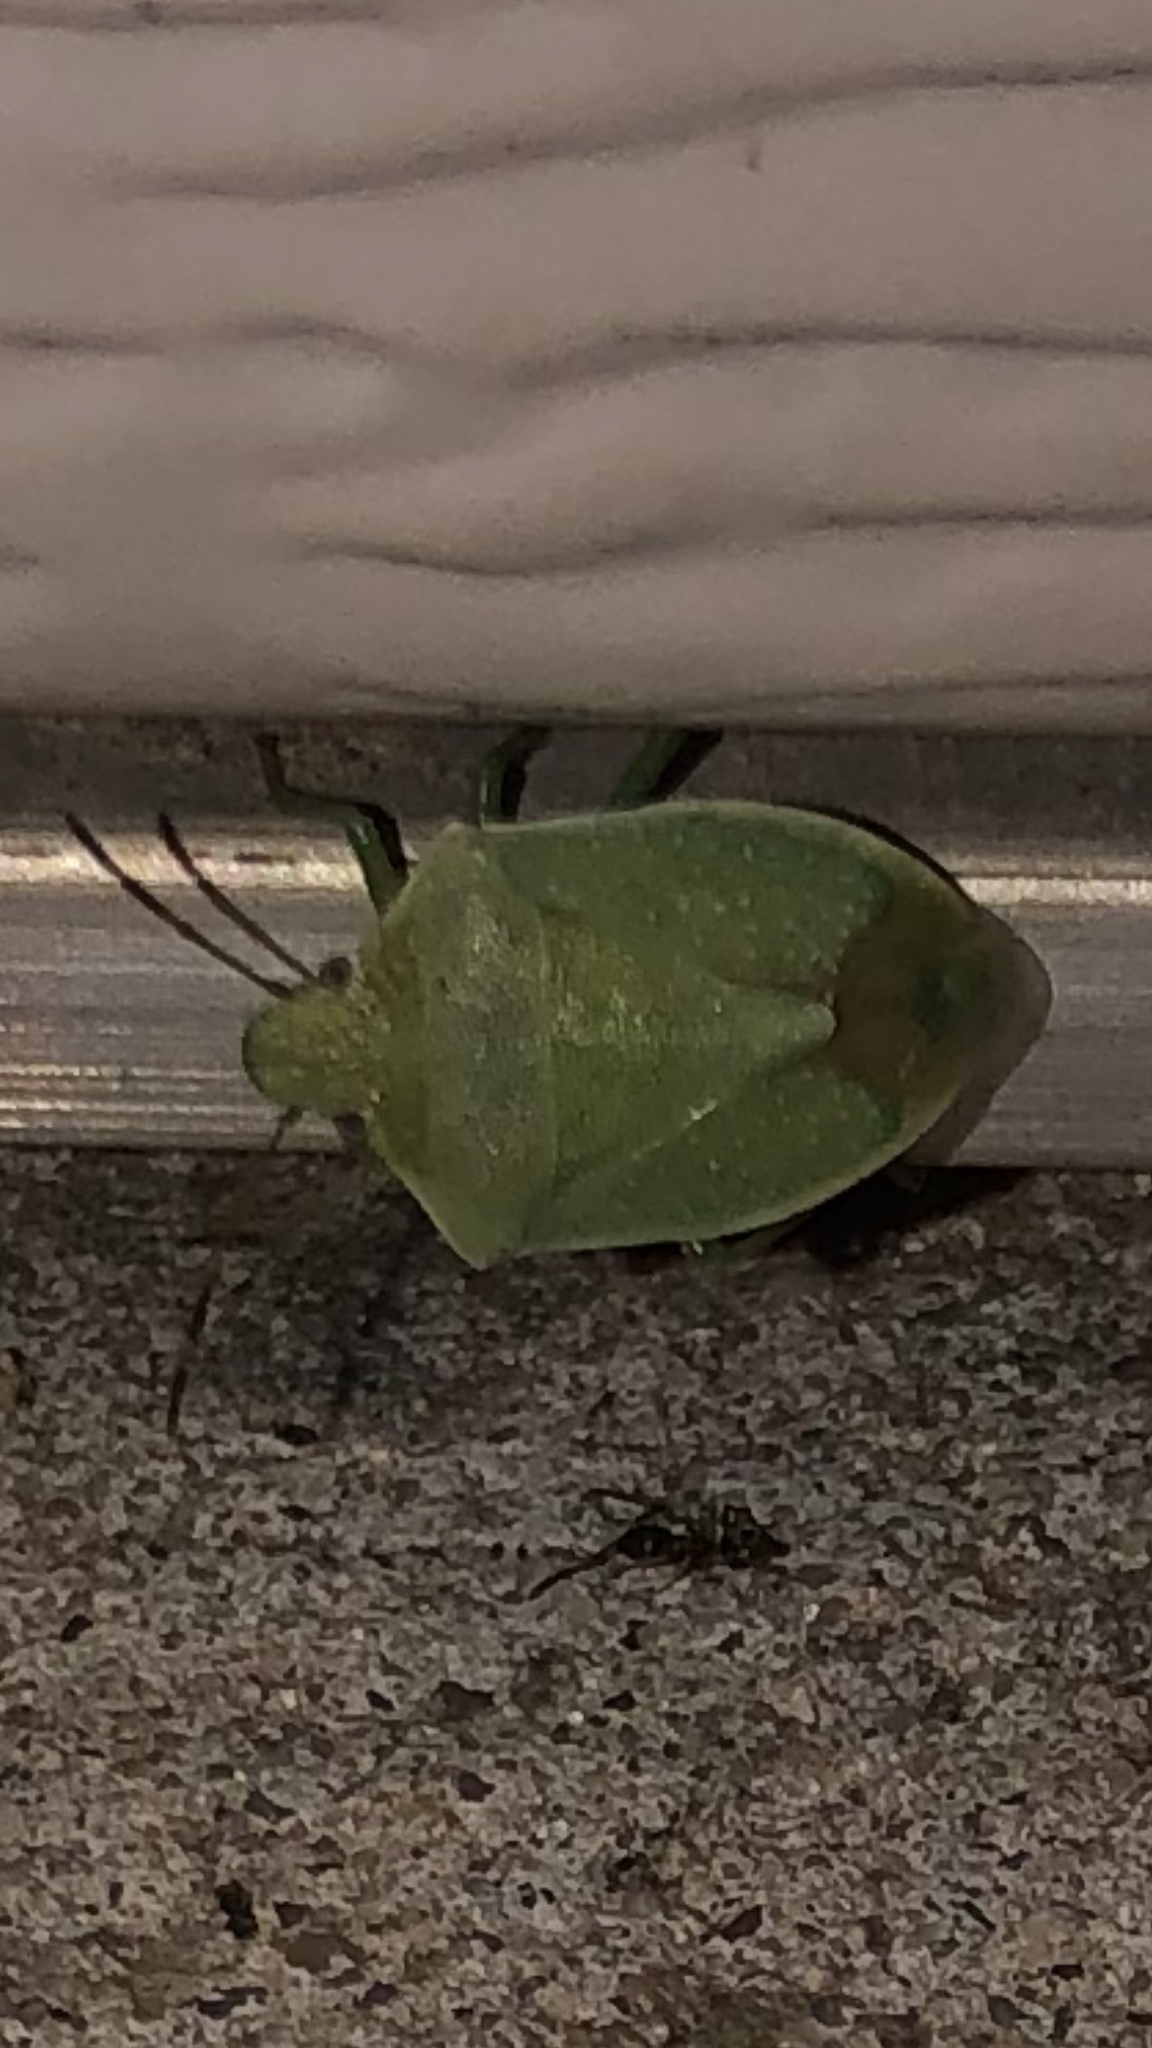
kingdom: Animalia
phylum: Arthropoda
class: Insecta
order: Hemiptera
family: Pentatomidae
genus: Thyanta
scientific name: Thyanta accerra
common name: Stink bug
